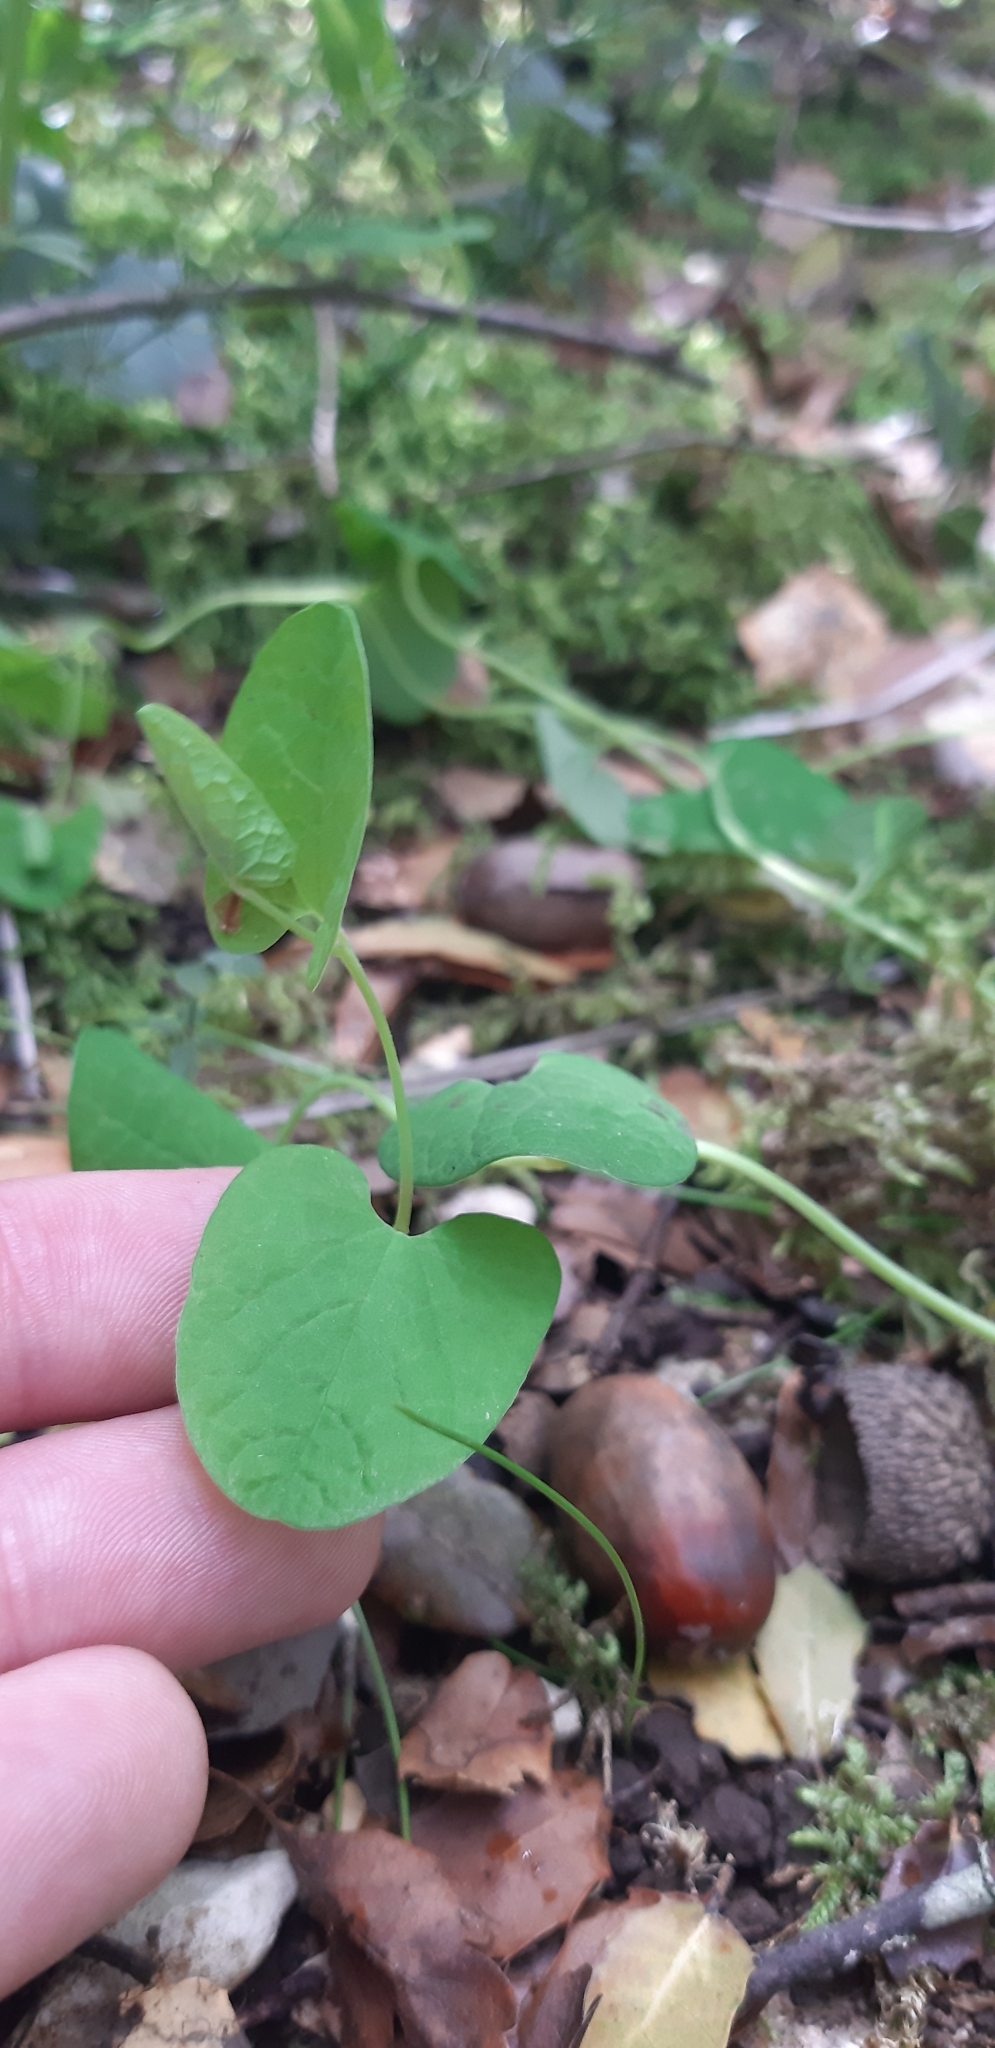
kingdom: Plantae
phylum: Tracheophyta
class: Magnoliopsida
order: Piperales
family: Aristolochiaceae
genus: Aristolochia
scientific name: Aristolochia clusii
